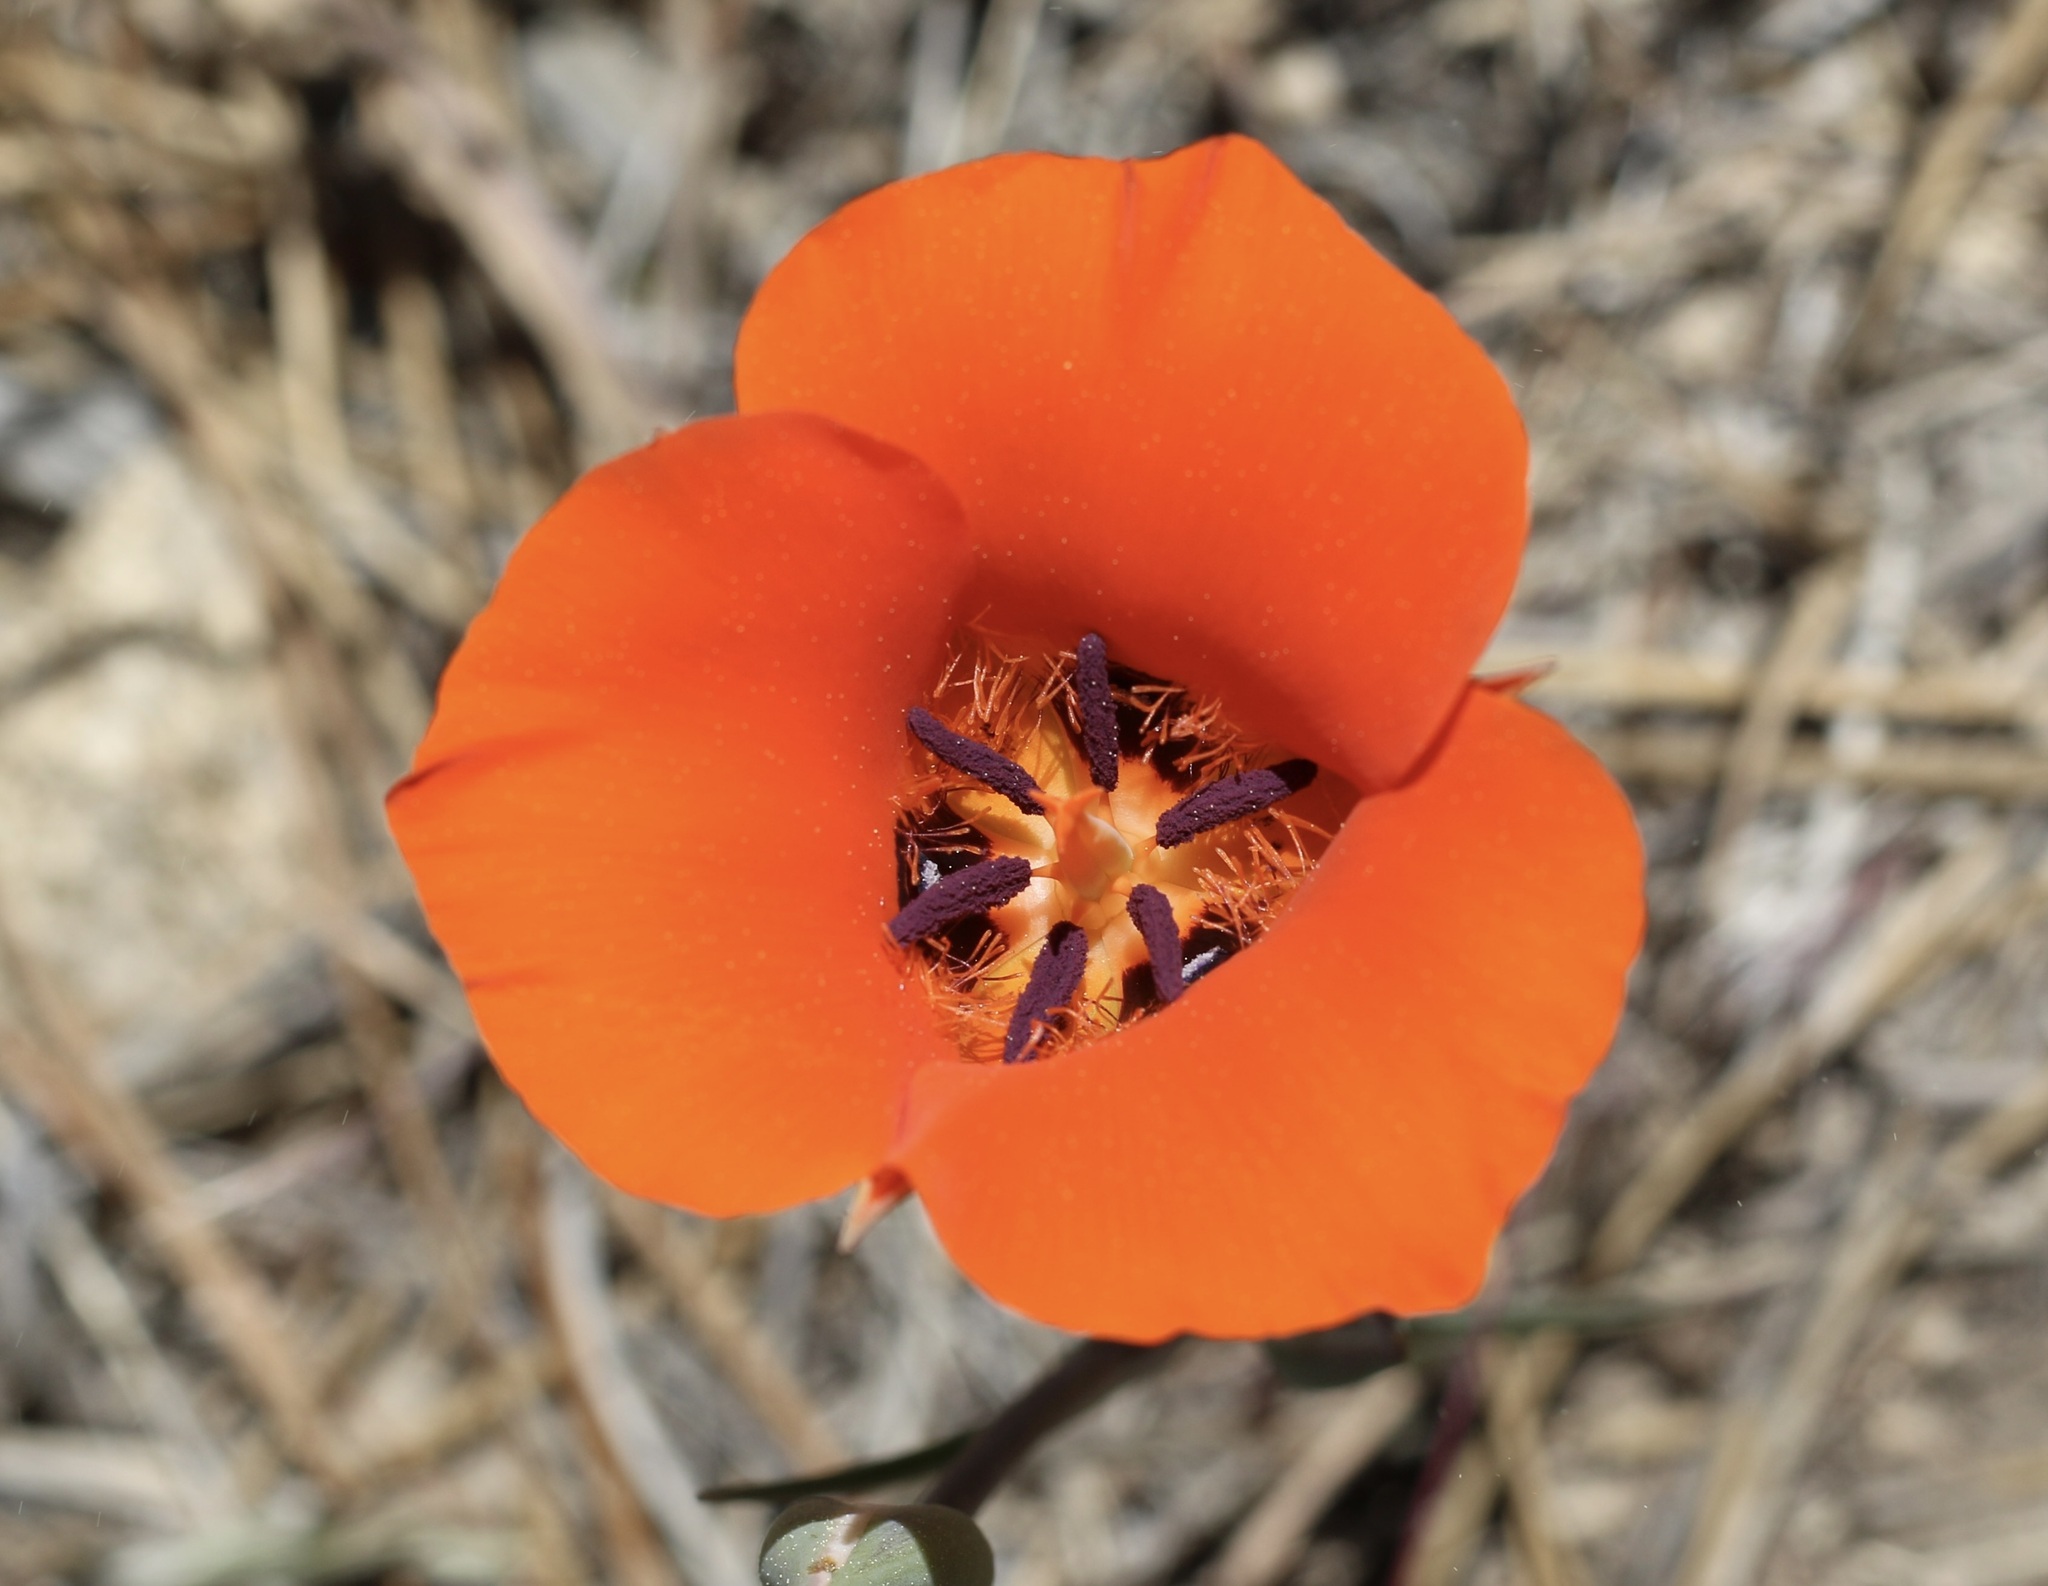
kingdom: Plantae
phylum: Tracheophyta
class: Liliopsida
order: Liliales
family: Liliaceae
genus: Calochortus
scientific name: Calochortus kennedyi
